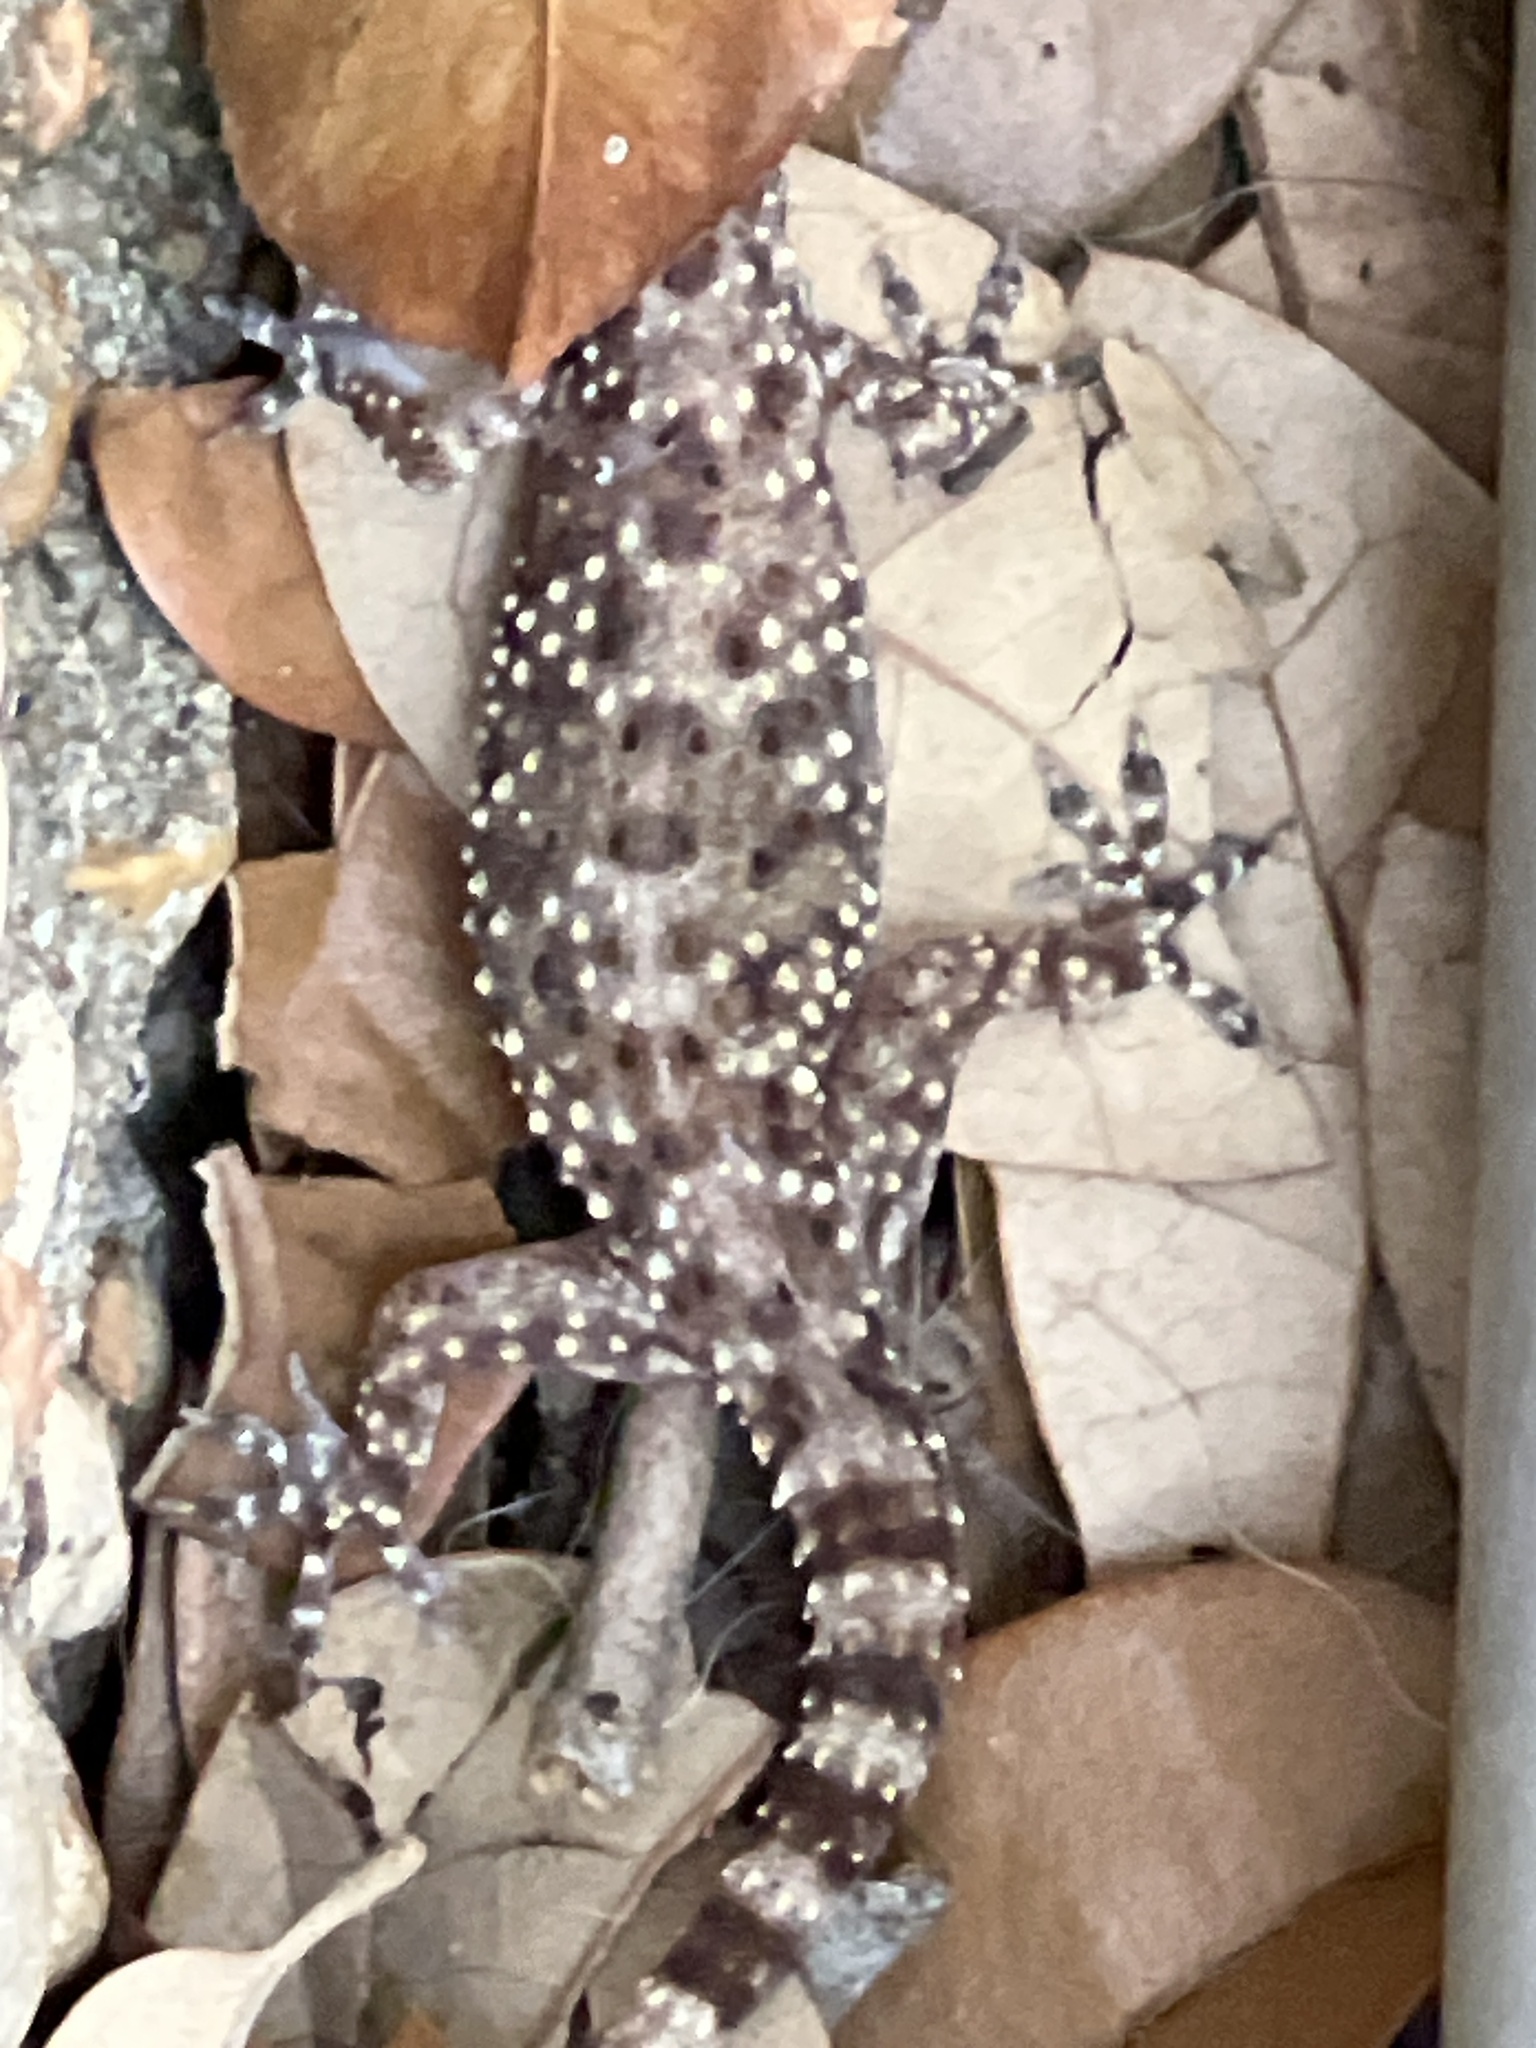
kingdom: Animalia
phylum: Chordata
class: Squamata
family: Gekkonidae
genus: Hemidactylus
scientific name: Hemidactylus turcicus
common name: Turkish gecko
